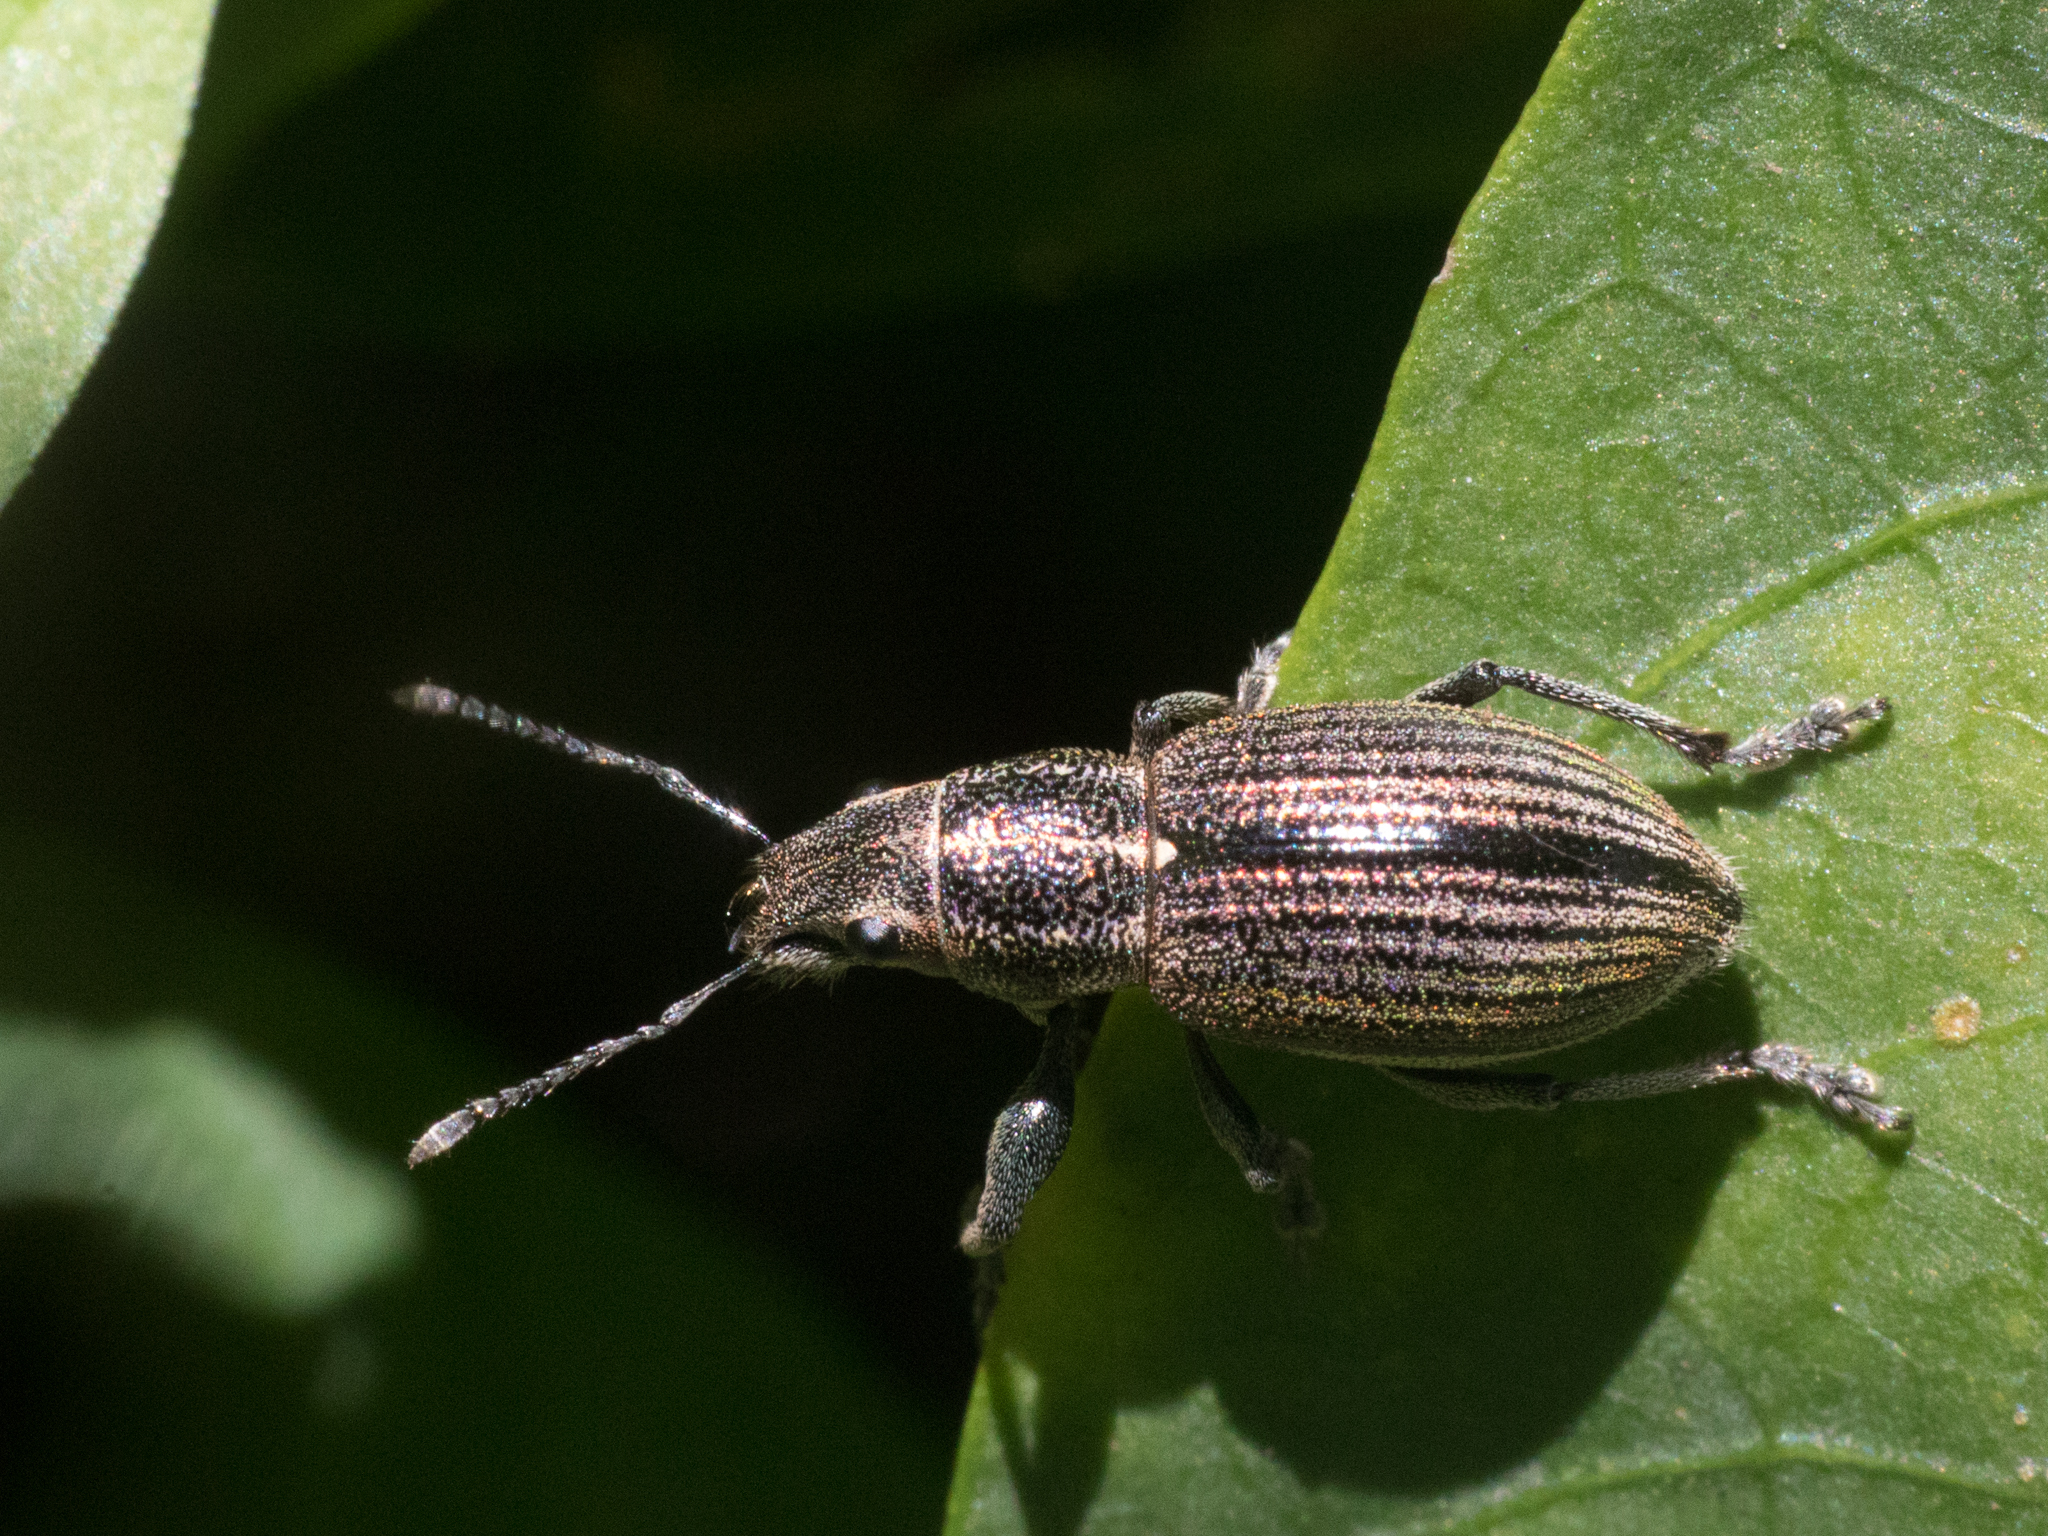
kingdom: Animalia
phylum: Arthropoda
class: Insecta
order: Coleoptera
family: Curculionidae
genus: Naupactus
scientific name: Naupactus tremolerasi
